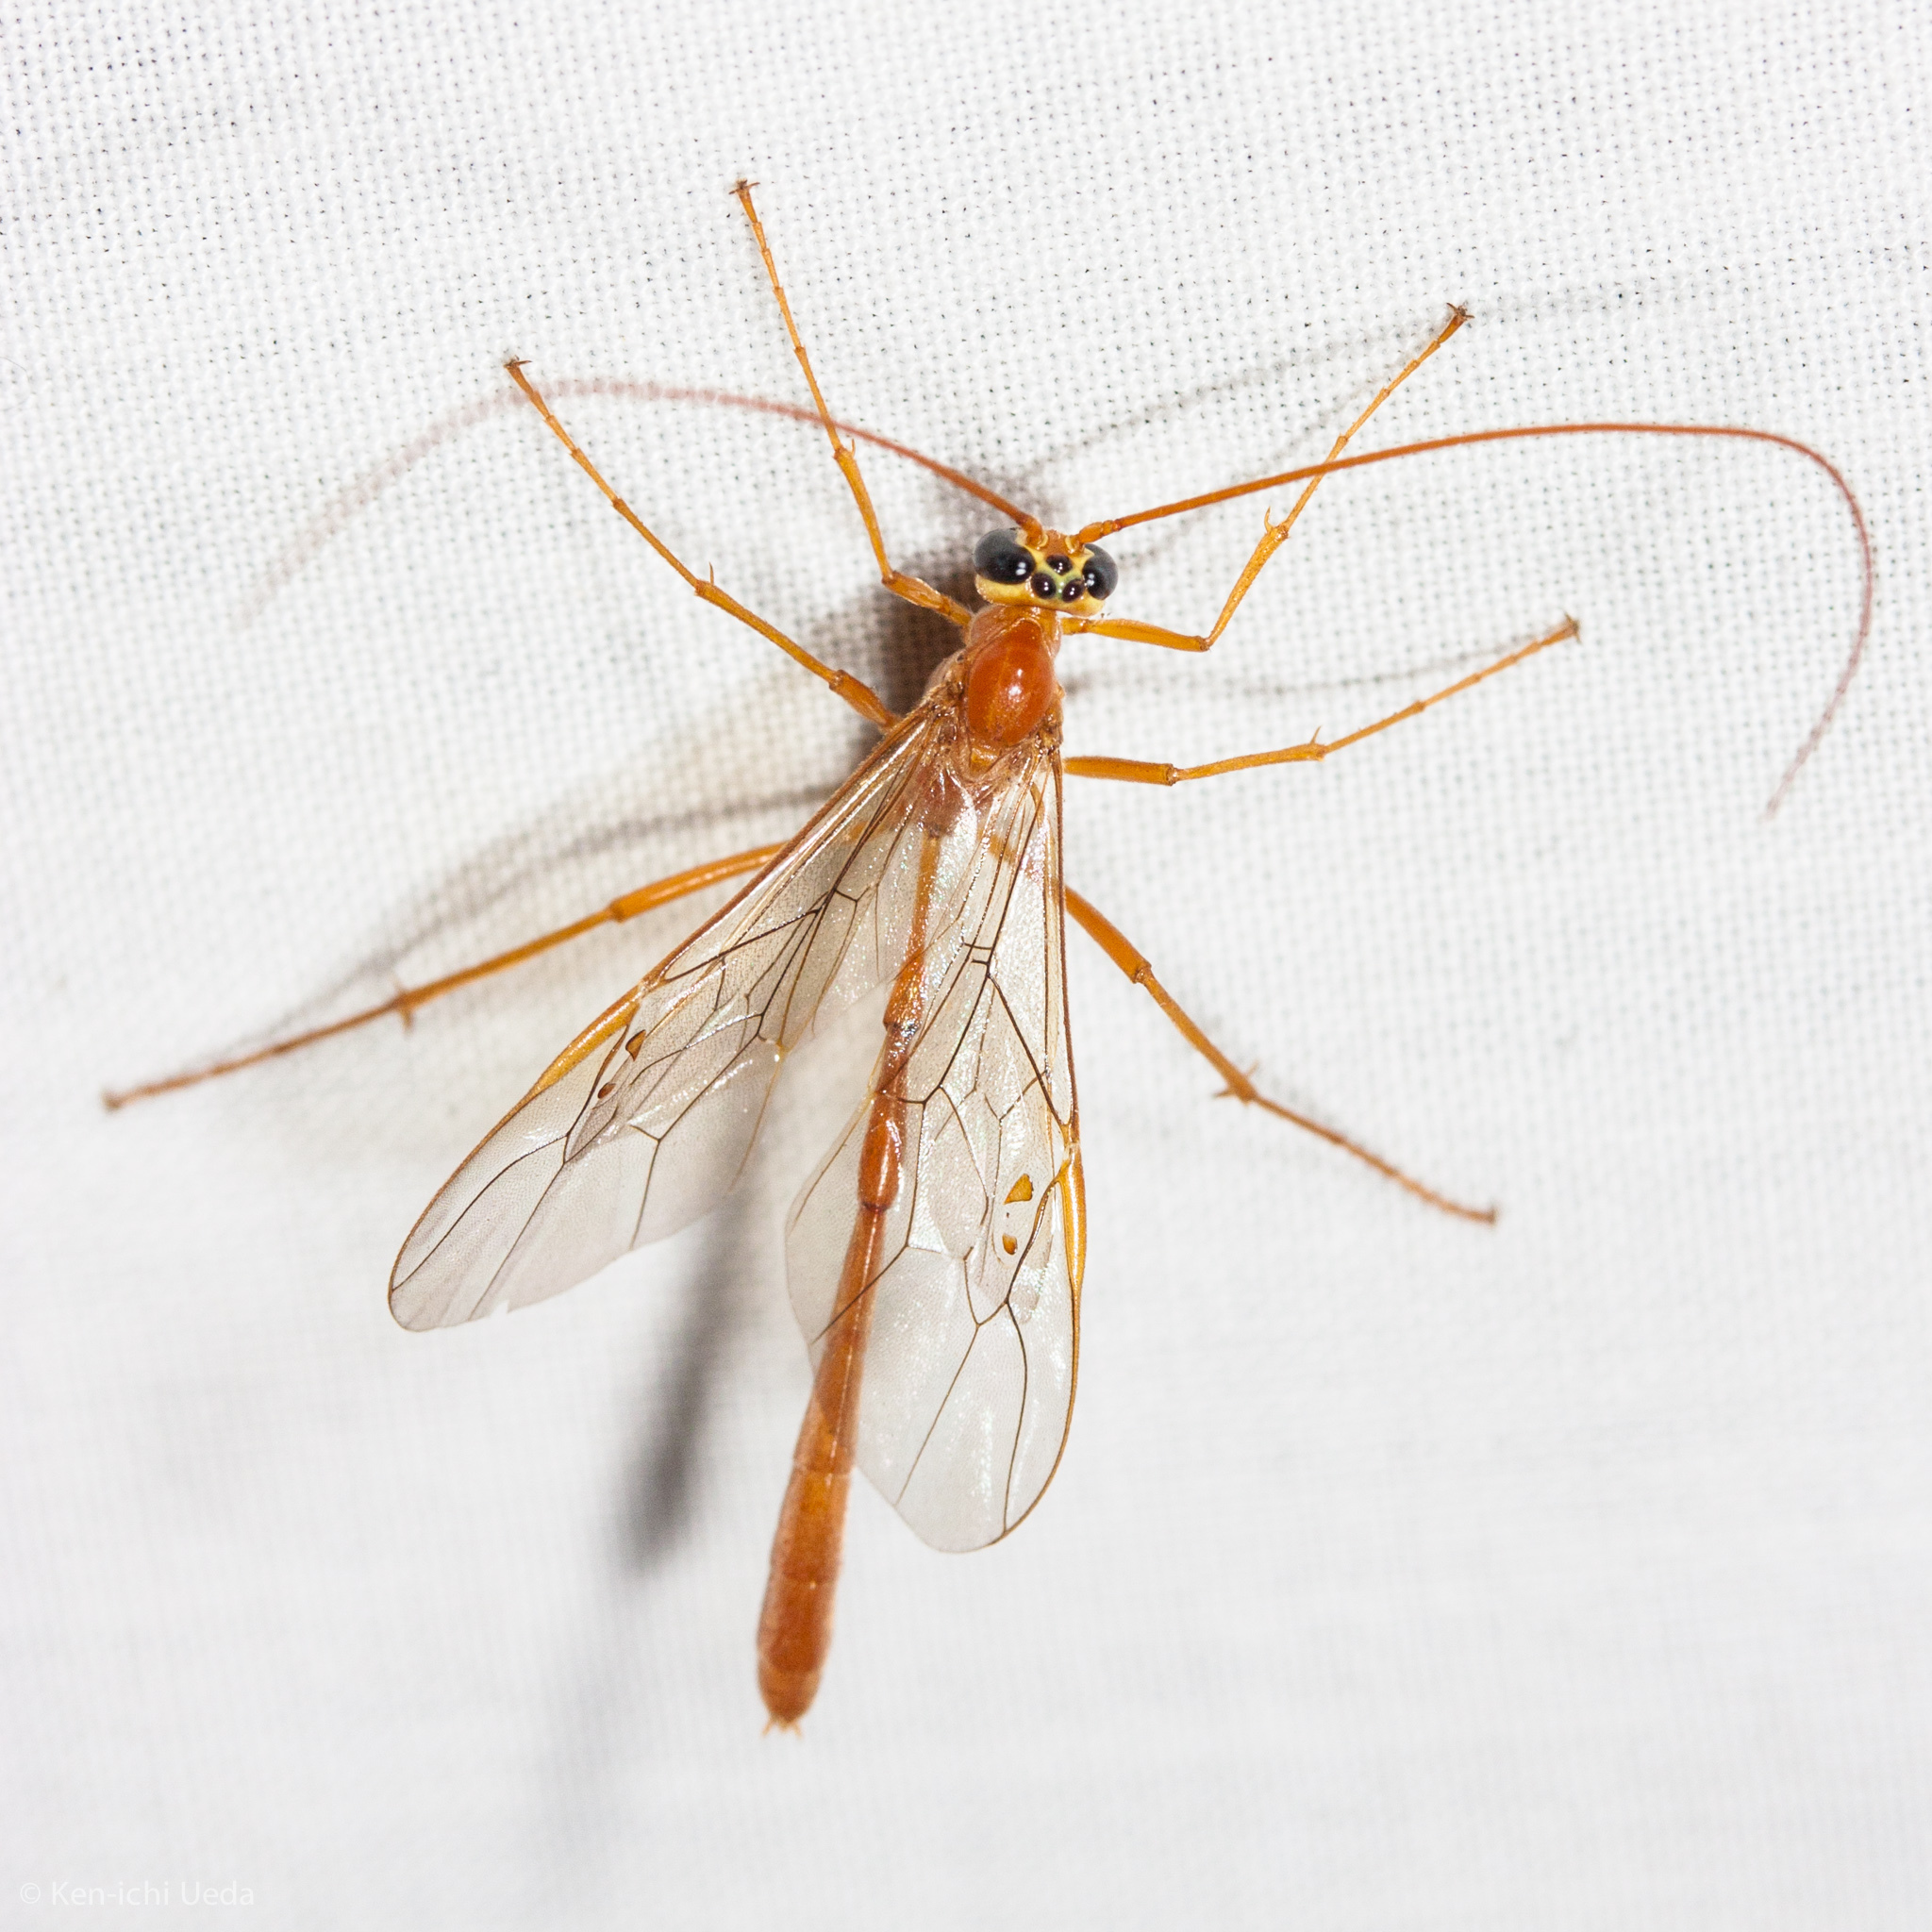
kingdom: Animalia
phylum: Arthropoda
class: Insecta
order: Hymenoptera
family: Ichneumonidae
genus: Enicospilus
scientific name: Enicospilus purgatus
